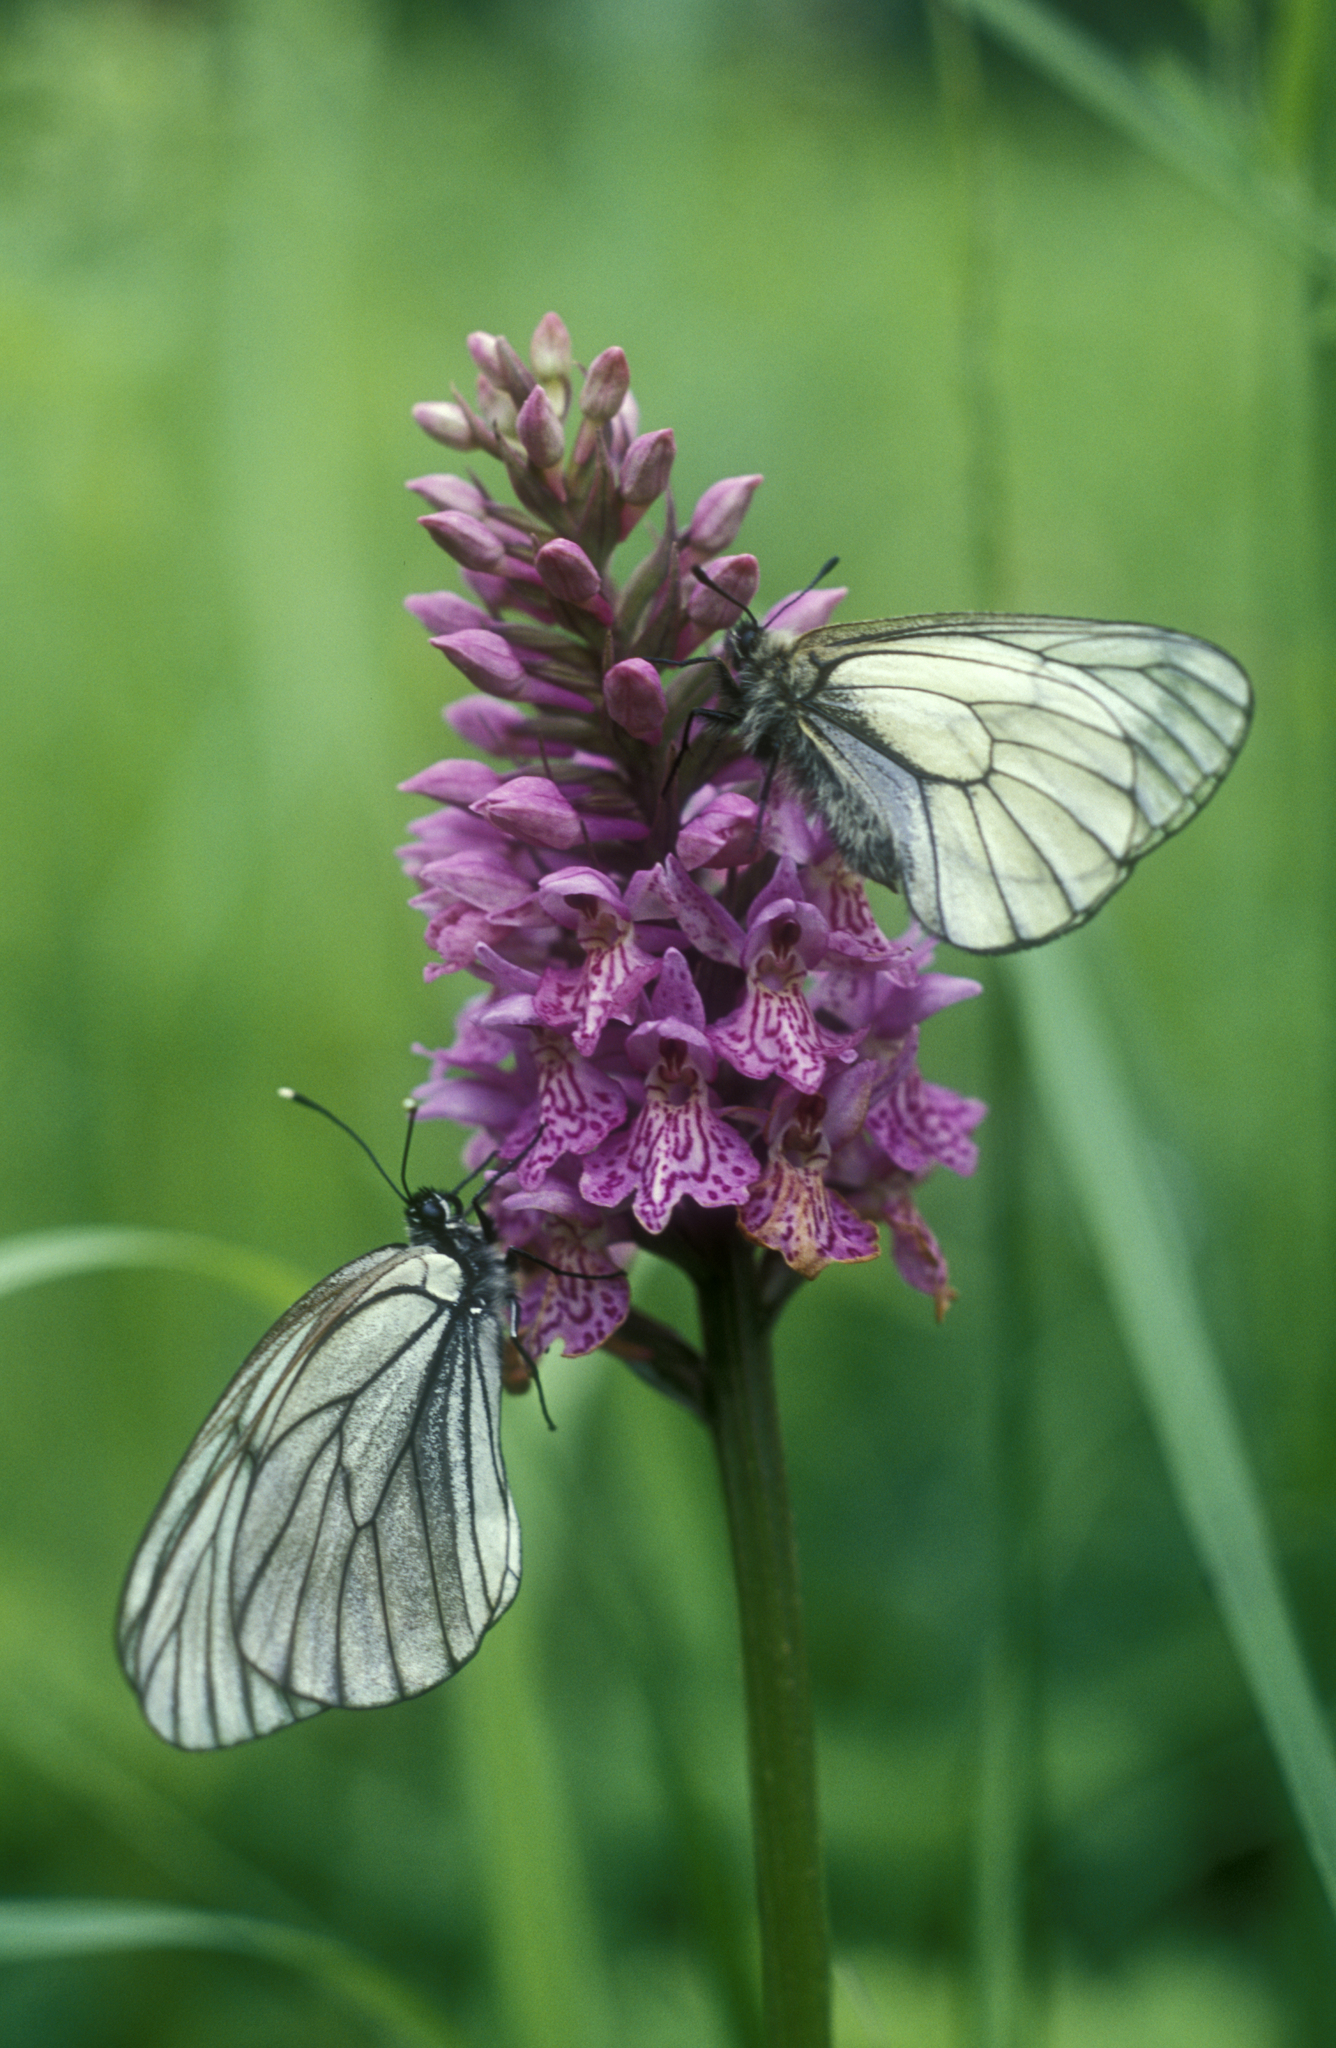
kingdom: Animalia
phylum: Arthropoda
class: Insecta
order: Lepidoptera
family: Pieridae
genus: Aporia
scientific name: Aporia crataegi
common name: Black-veined white
